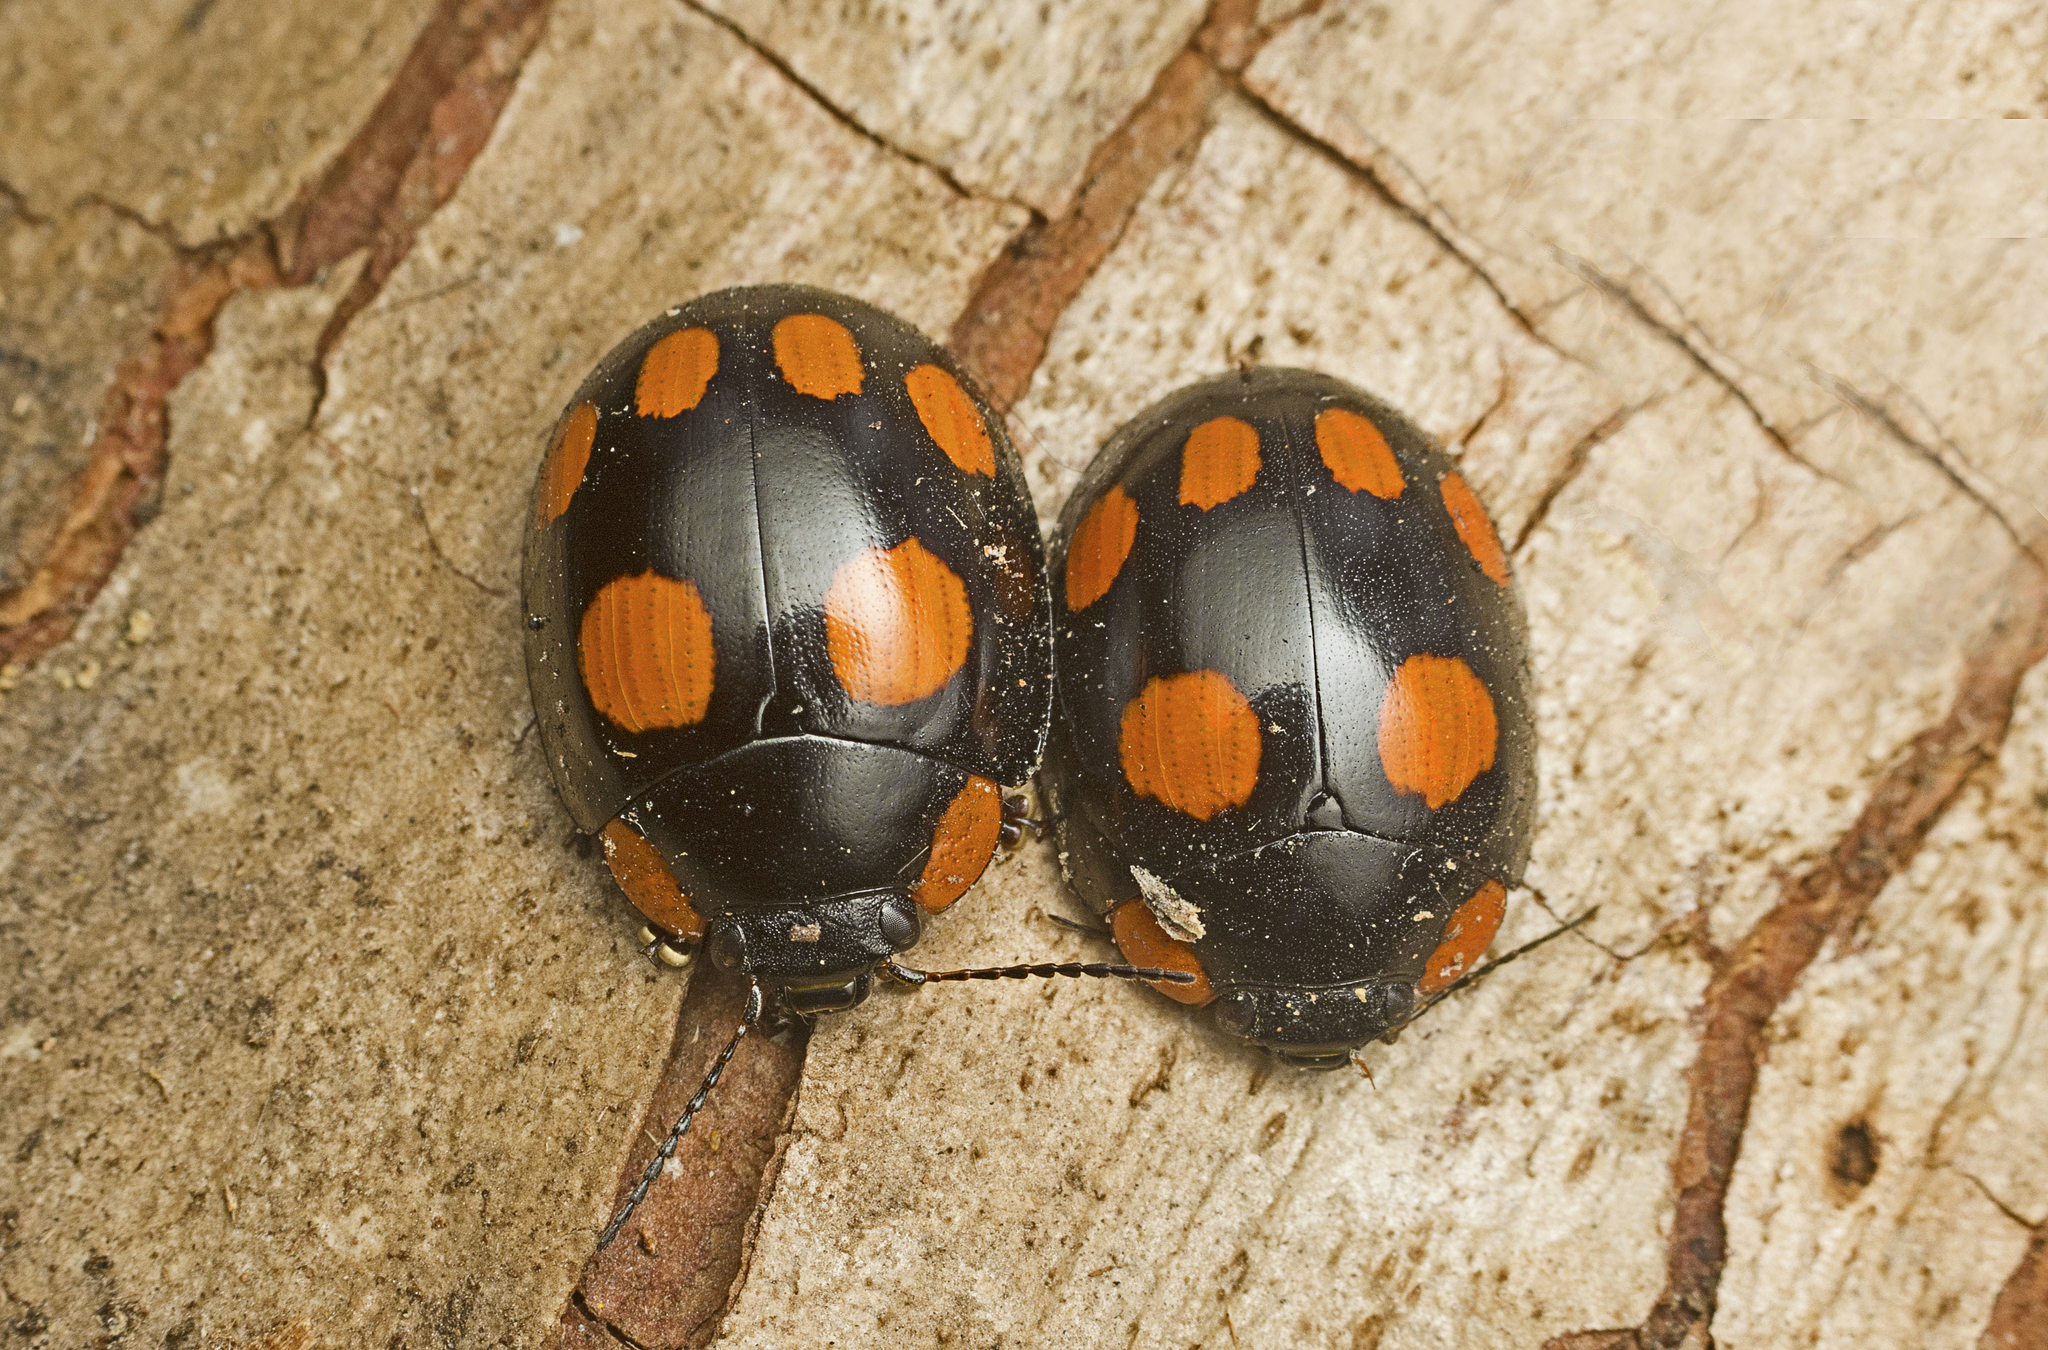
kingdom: Animalia
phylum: Arthropoda
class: Insecta
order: Coleoptera
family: Chrysomelidae
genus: Paropsisterna
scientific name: Paropsisterna
